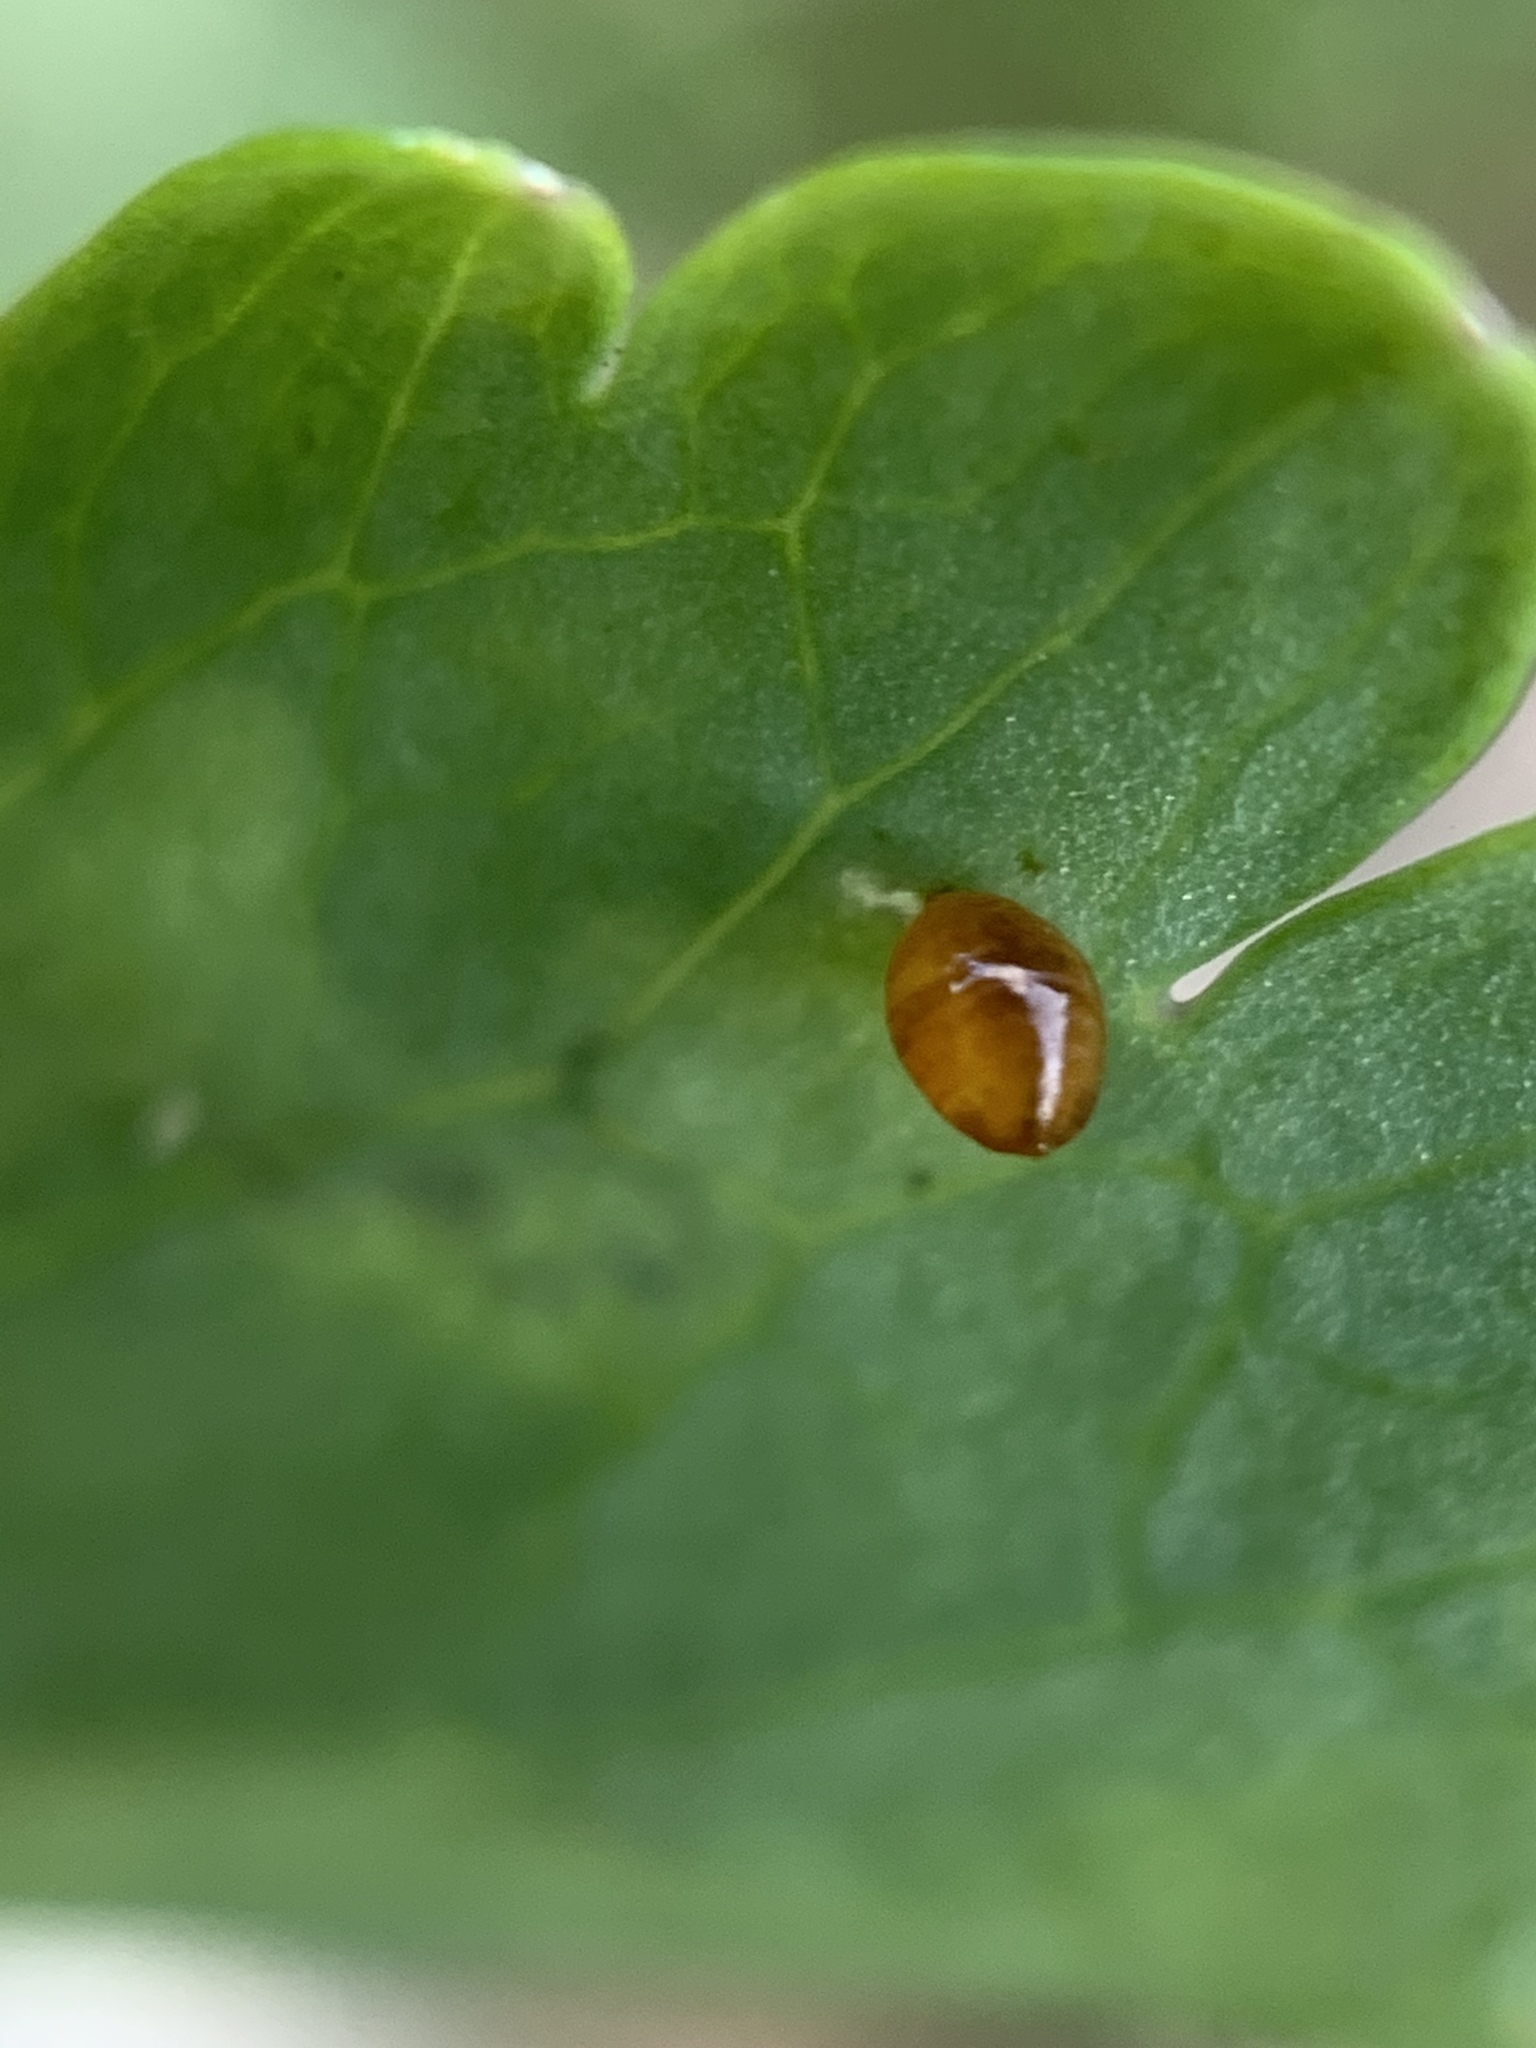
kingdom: Animalia
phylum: Arthropoda
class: Insecta
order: Diptera
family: Agromyzidae
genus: Phytomyza
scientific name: Phytomyza
